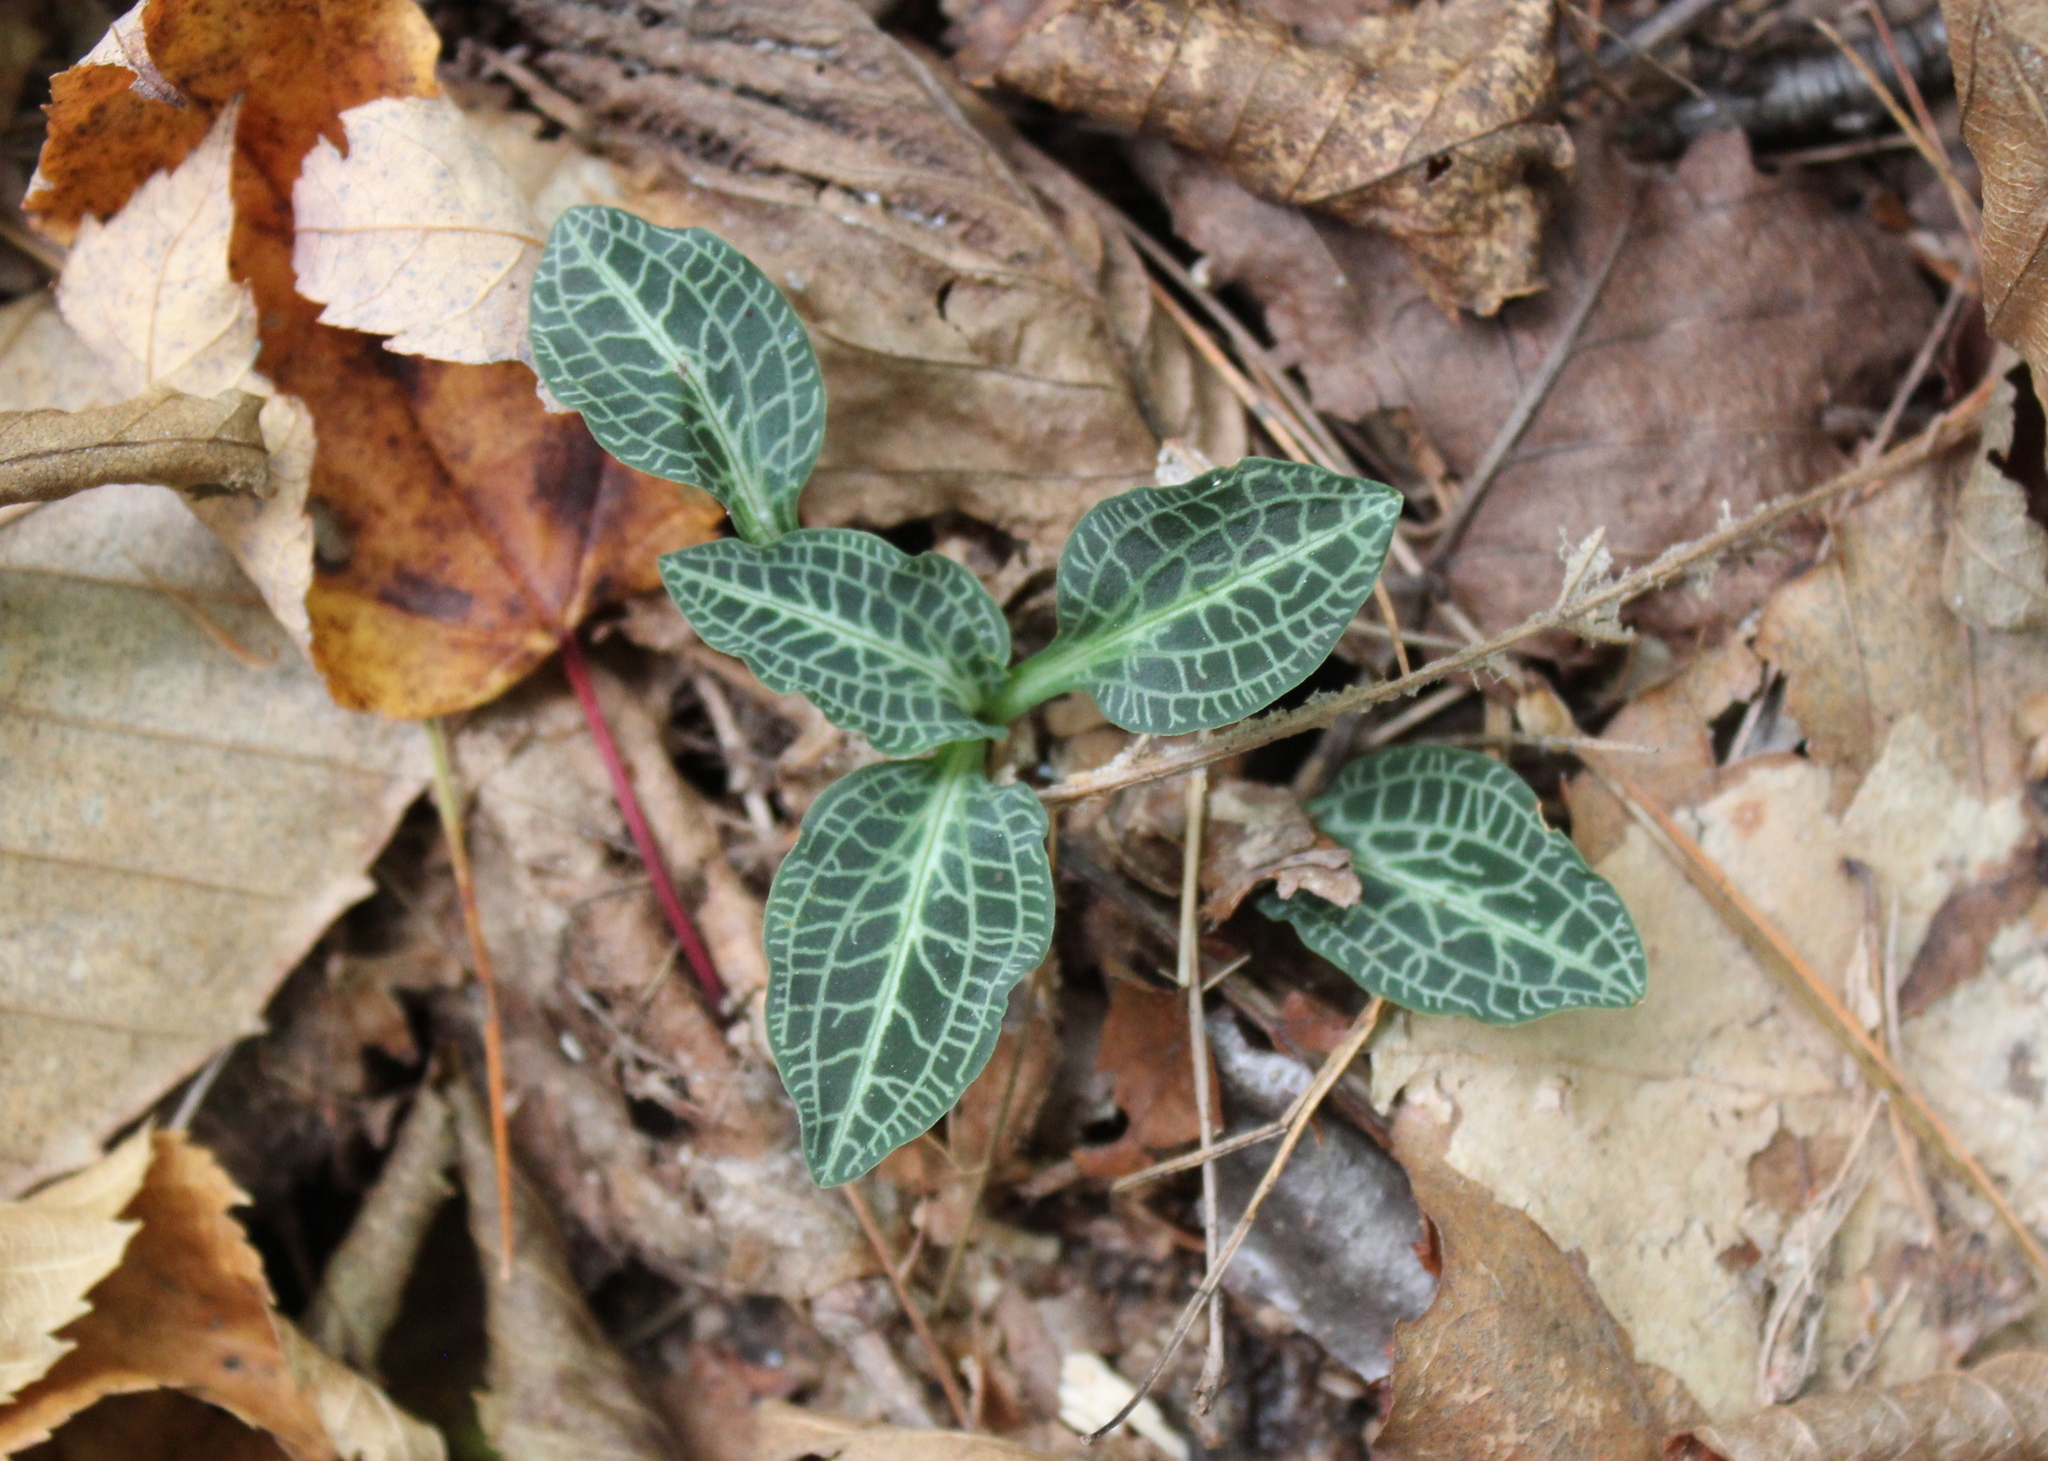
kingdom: Plantae
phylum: Tracheophyta
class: Liliopsida
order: Asparagales
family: Orchidaceae
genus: Goodyera
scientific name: Goodyera pubescens
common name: Downy rattlesnake-plantain
